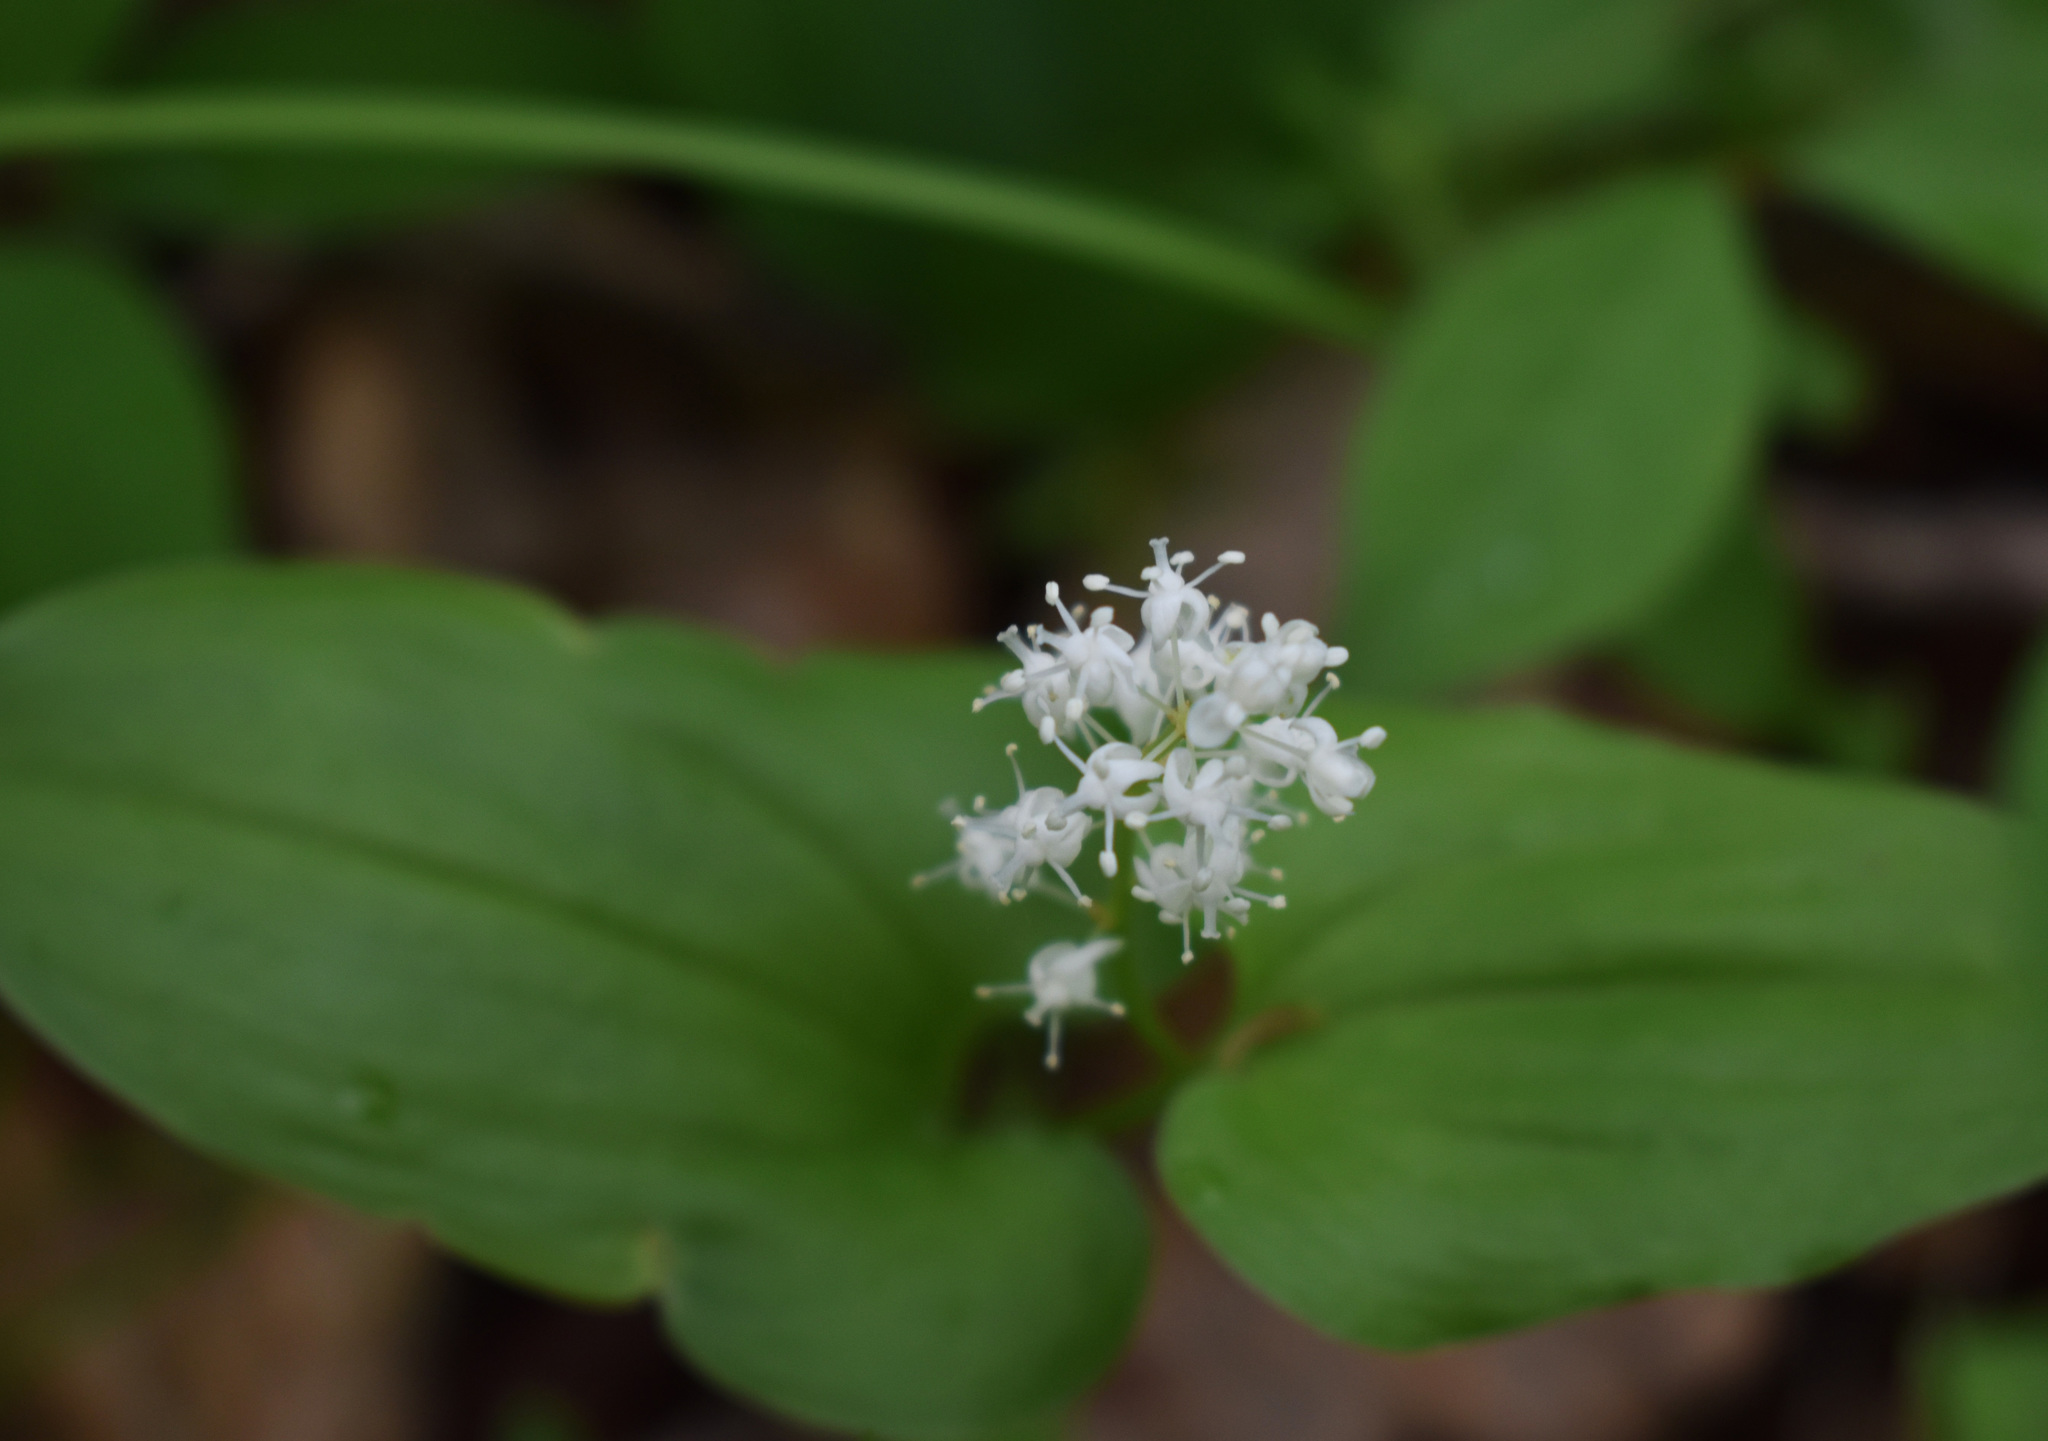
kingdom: Plantae
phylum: Tracheophyta
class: Liliopsida
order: Asparagales
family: Asparagaceae
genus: Maianthemum
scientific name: Maianthemum bifolium
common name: May lily
